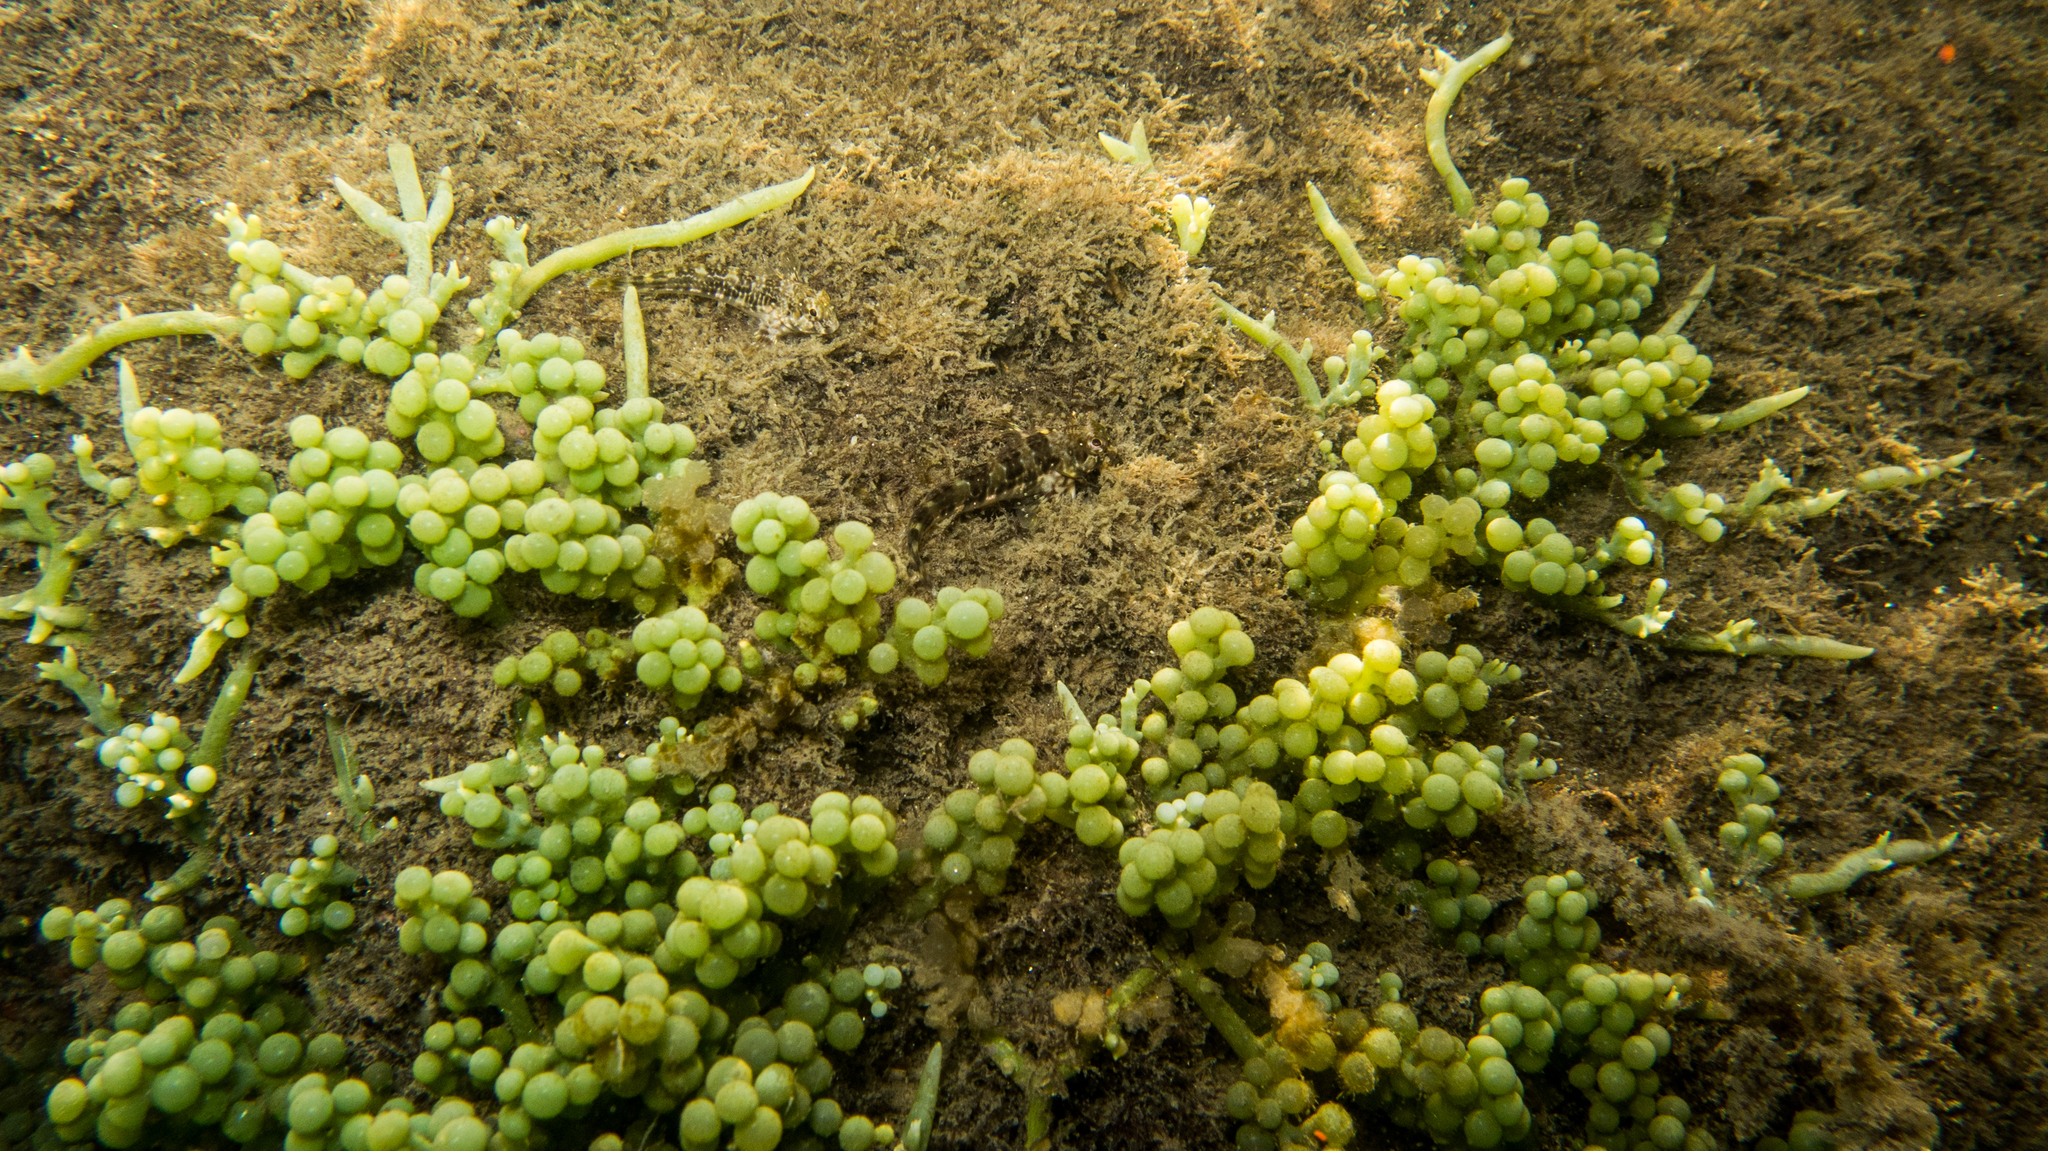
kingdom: Plantae
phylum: Chlorophyta
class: Ulvophyceae
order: Bryopsidales
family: Caulerpaceae
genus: Caulerpa
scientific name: Caulerpa racemosa
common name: Green grape algae
